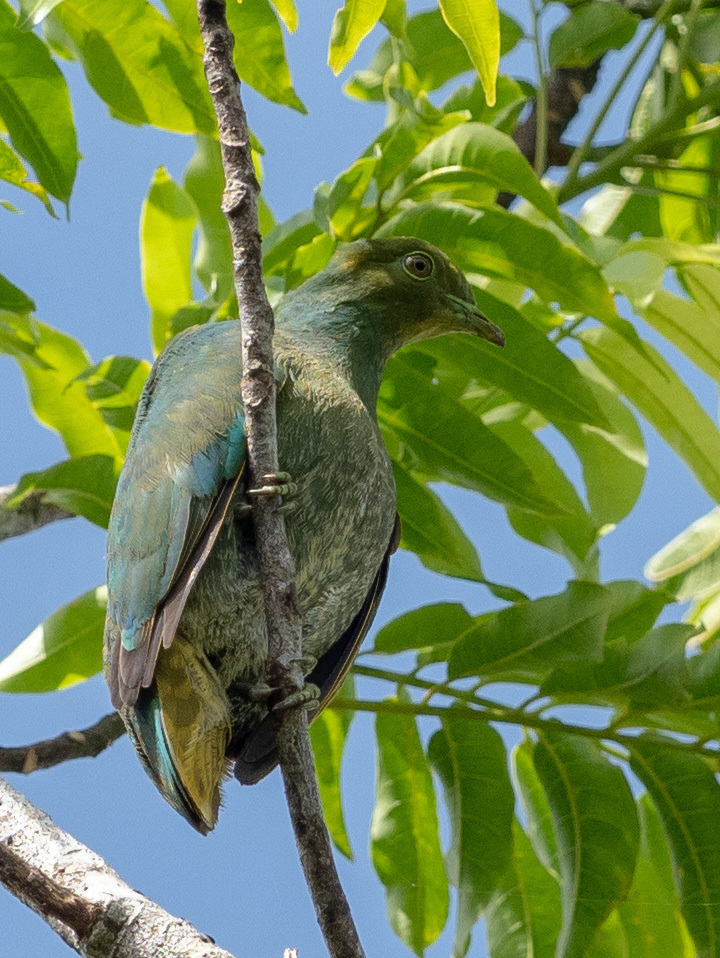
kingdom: Animalia
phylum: Chordata
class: Aves
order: Columbiformes
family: Columbidae
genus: Ptilinopus
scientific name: Ptilinopus victor
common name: Orange fruit dove
